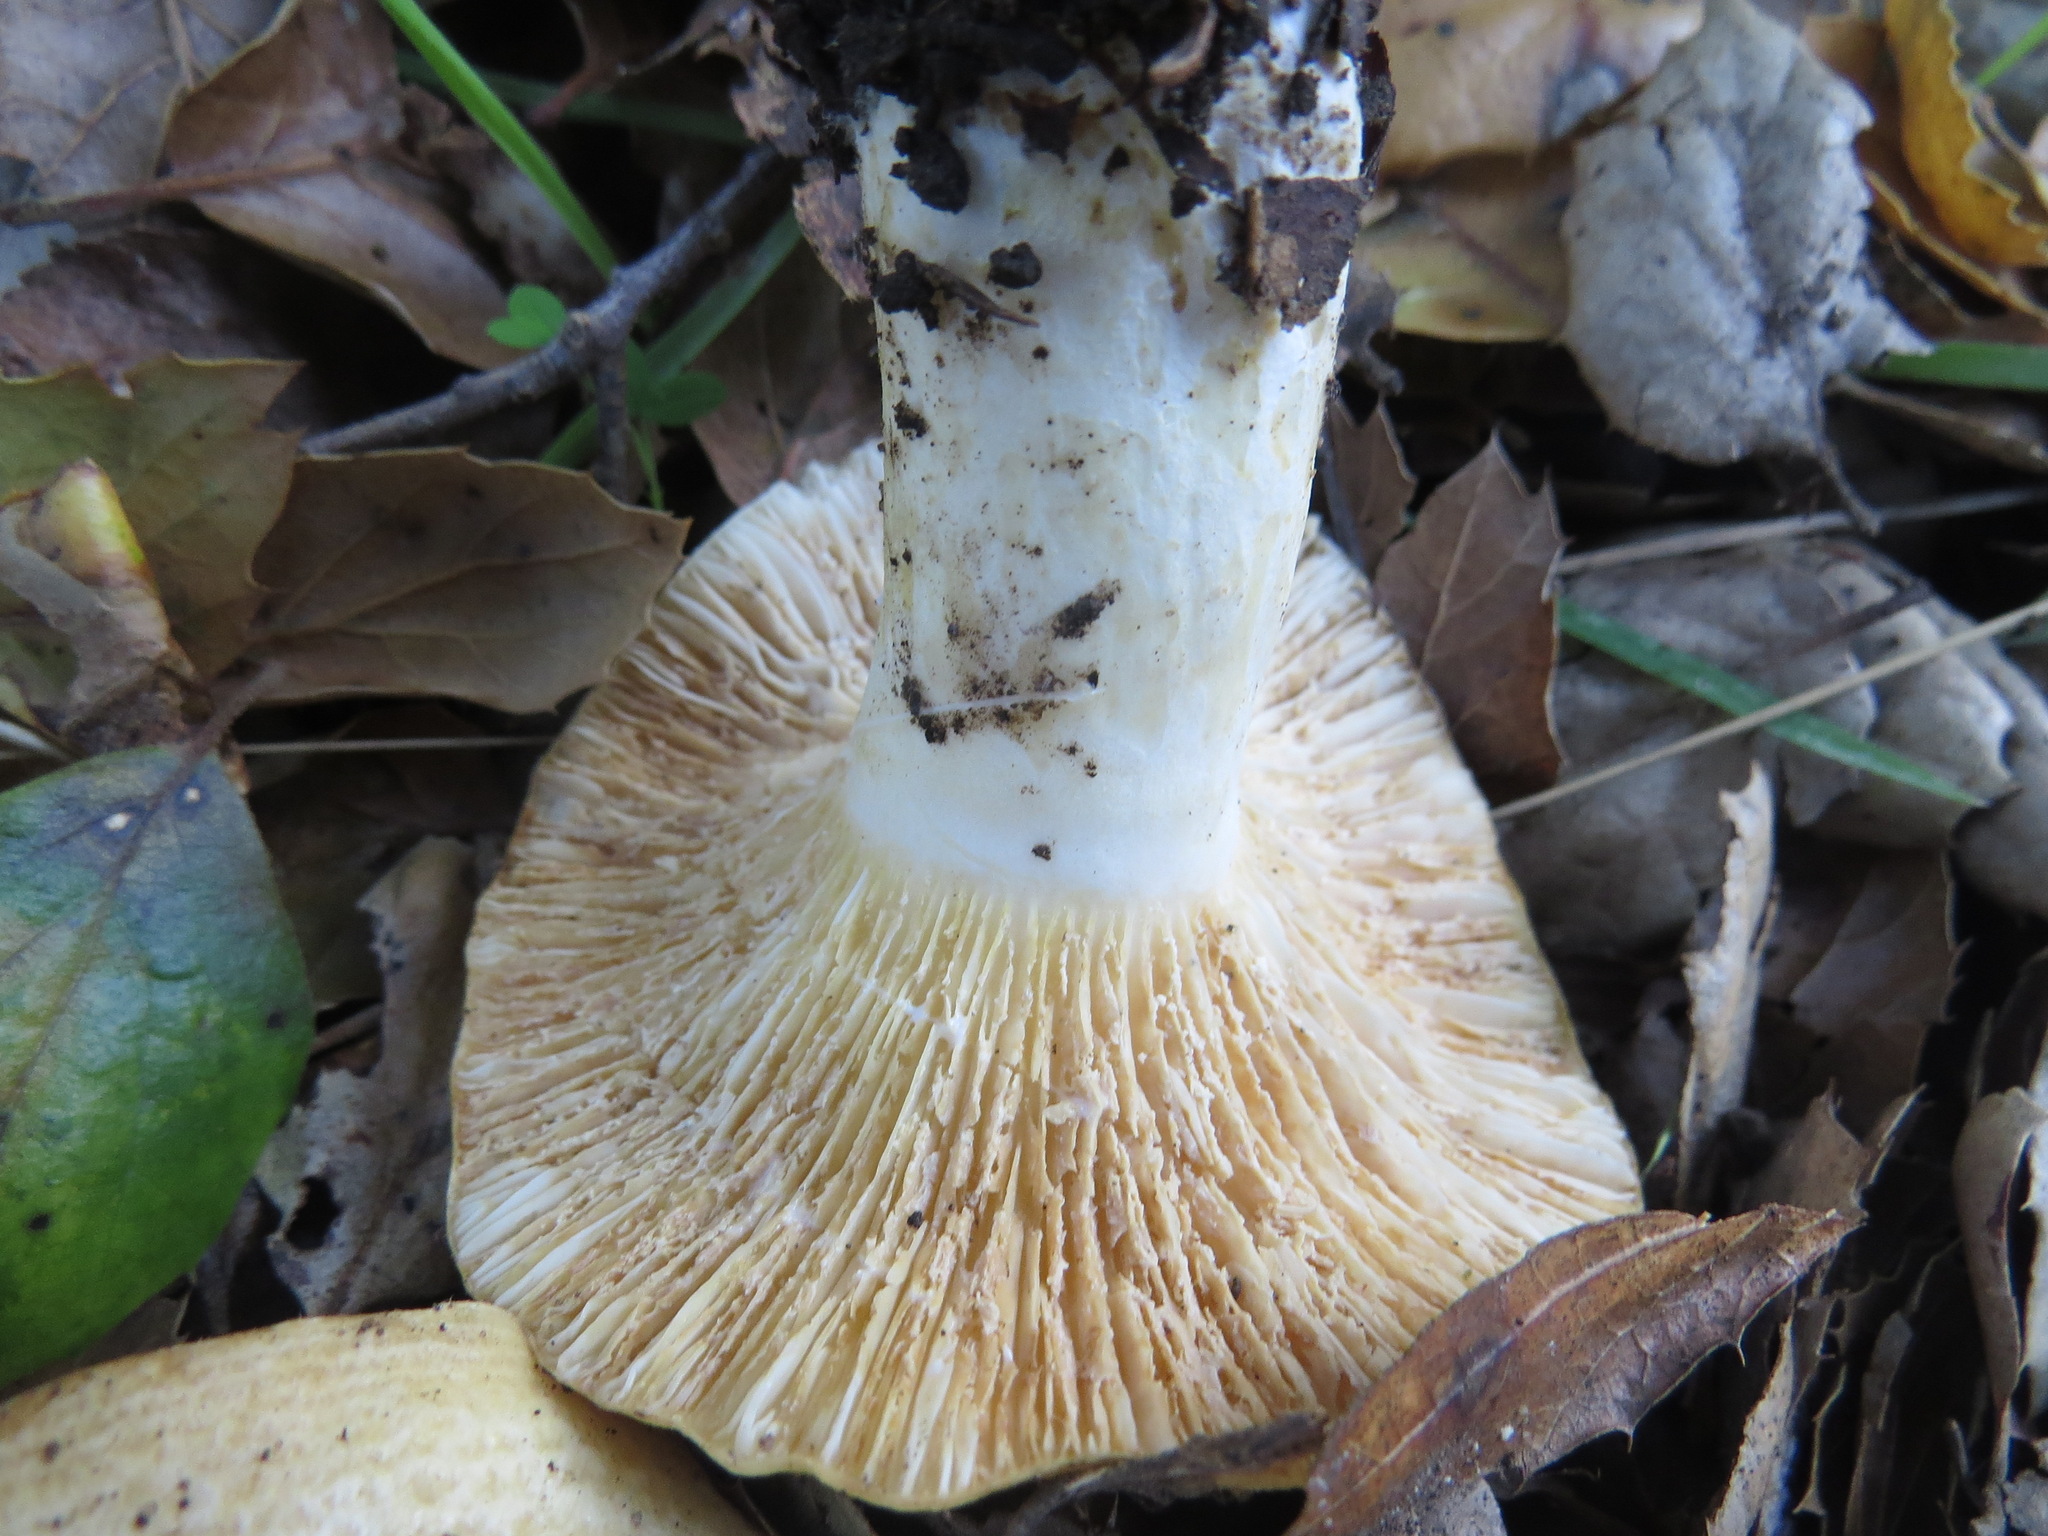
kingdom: Fungi
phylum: Basidiomycota
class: Agaricomycetes
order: Russulales
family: Russulaceae
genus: Lactarius
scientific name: Lactarius alnicola
